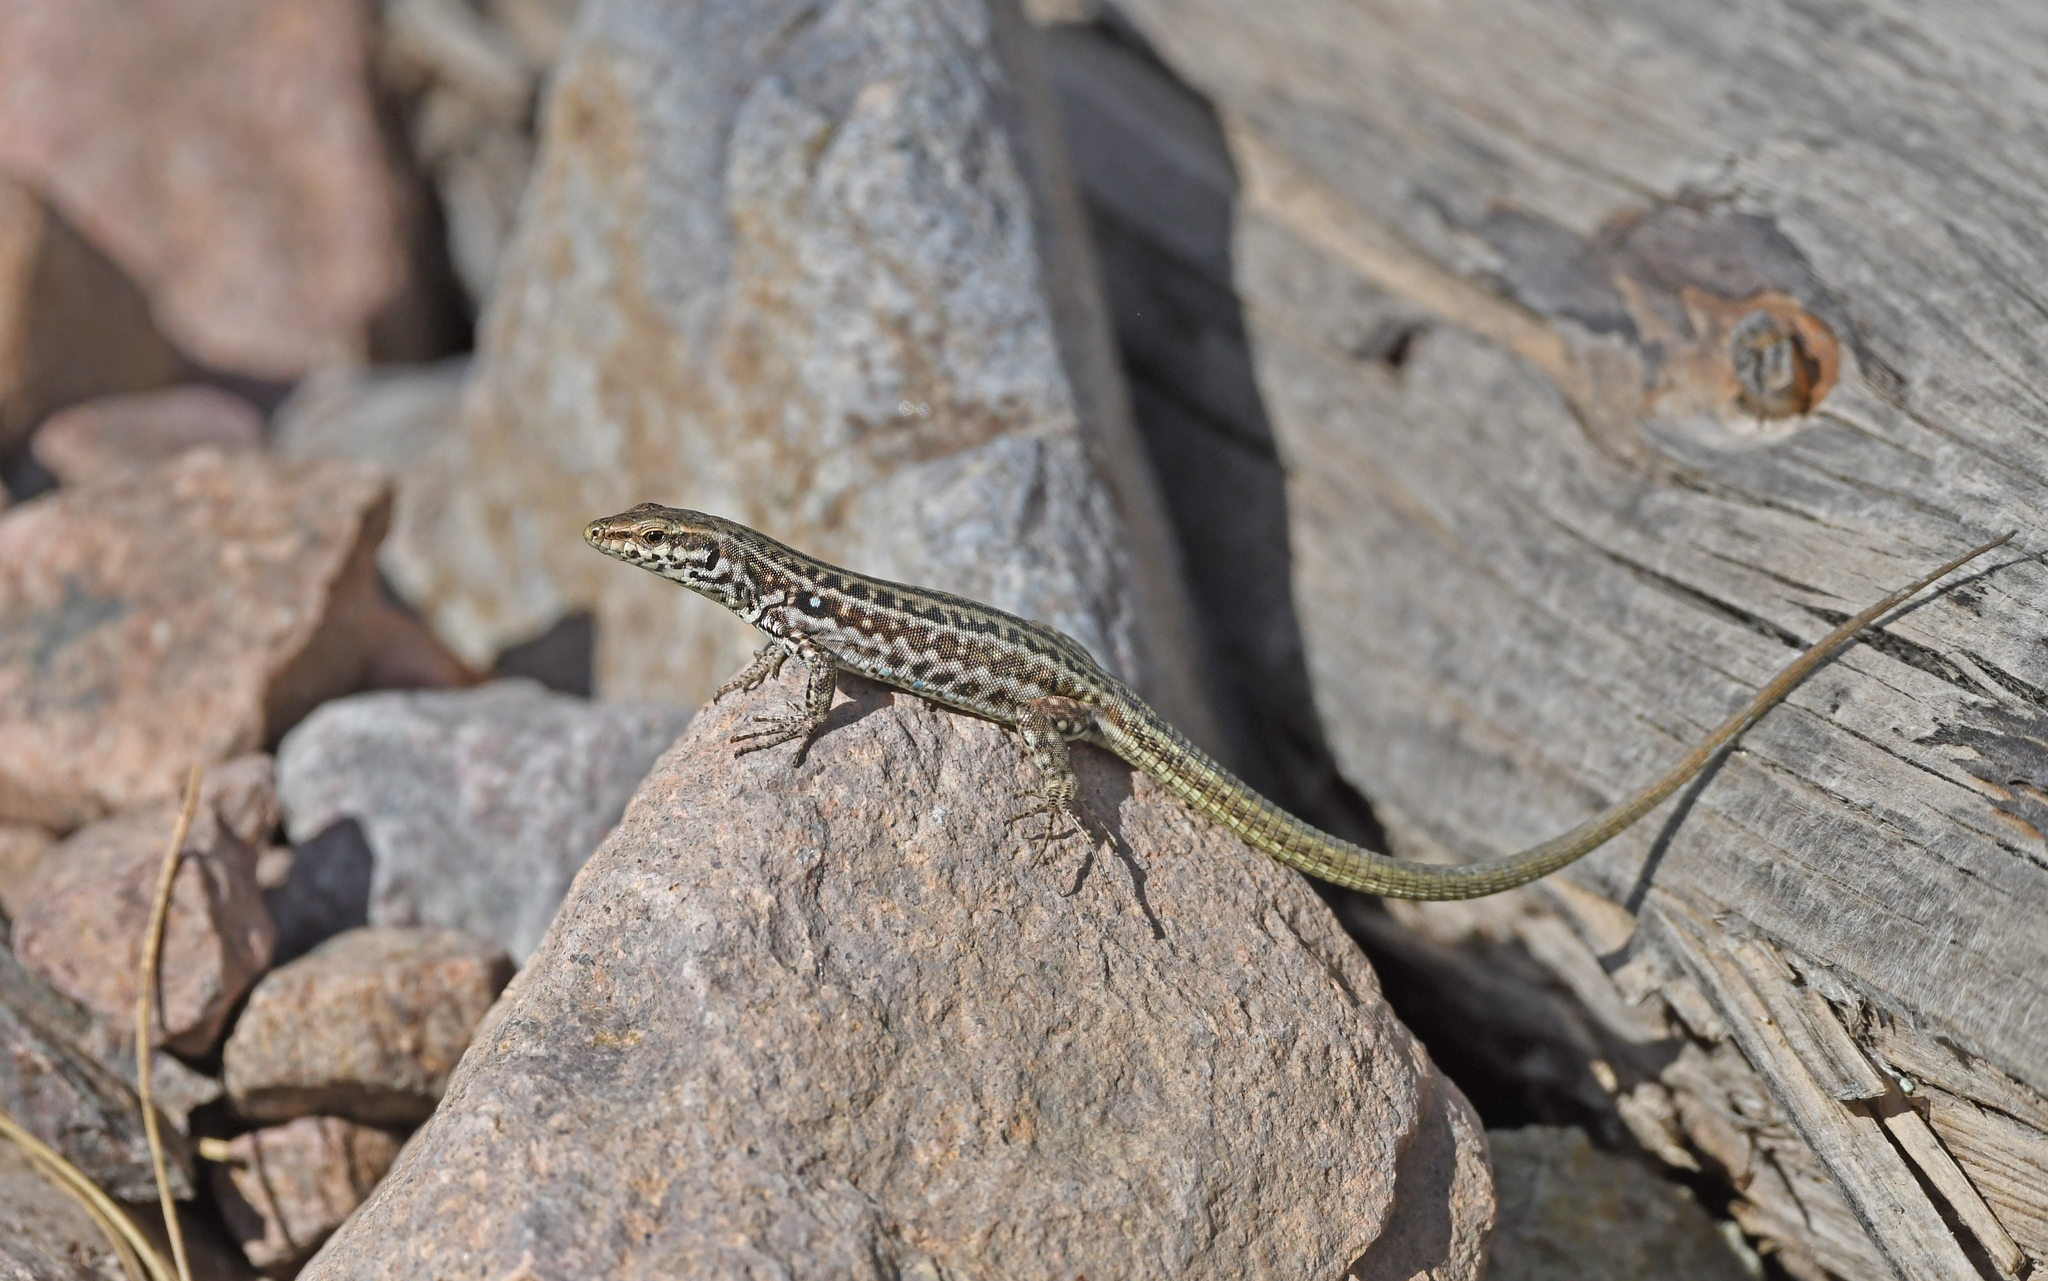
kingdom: Animalia
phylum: Chordata
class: Squamata
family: Lacertidae
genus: Podarcis
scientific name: Podarcis tiliguerta
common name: Tyrrhenian wall lizard
